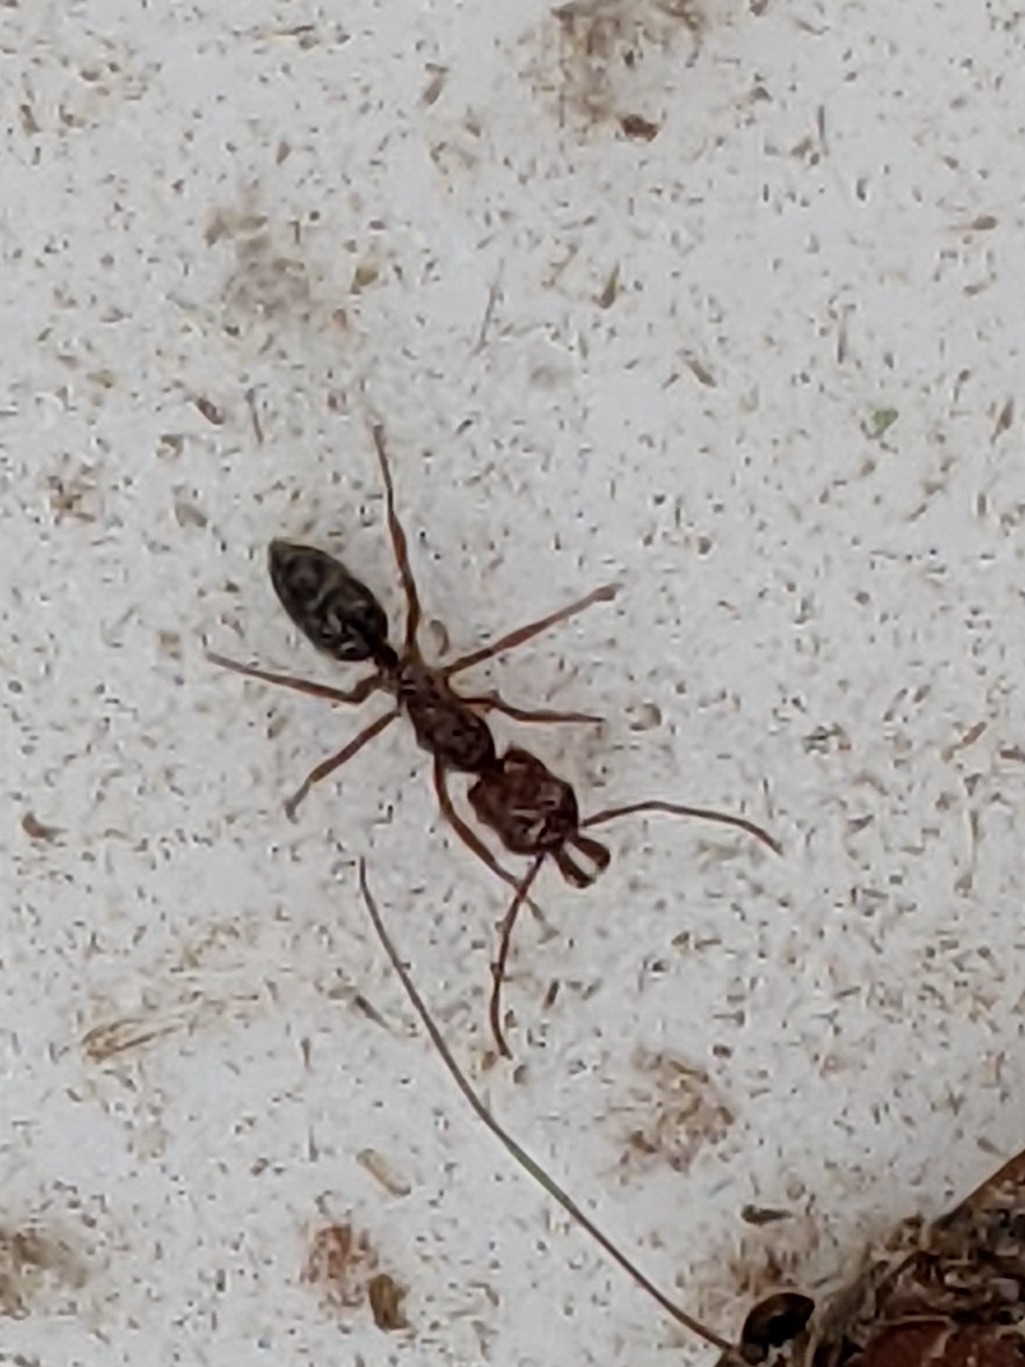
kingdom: Animalia
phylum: Arthropoda
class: Insecta
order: Hymenoptera
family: Formicidae
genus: Odontomachus
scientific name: Odontomachus clarus
